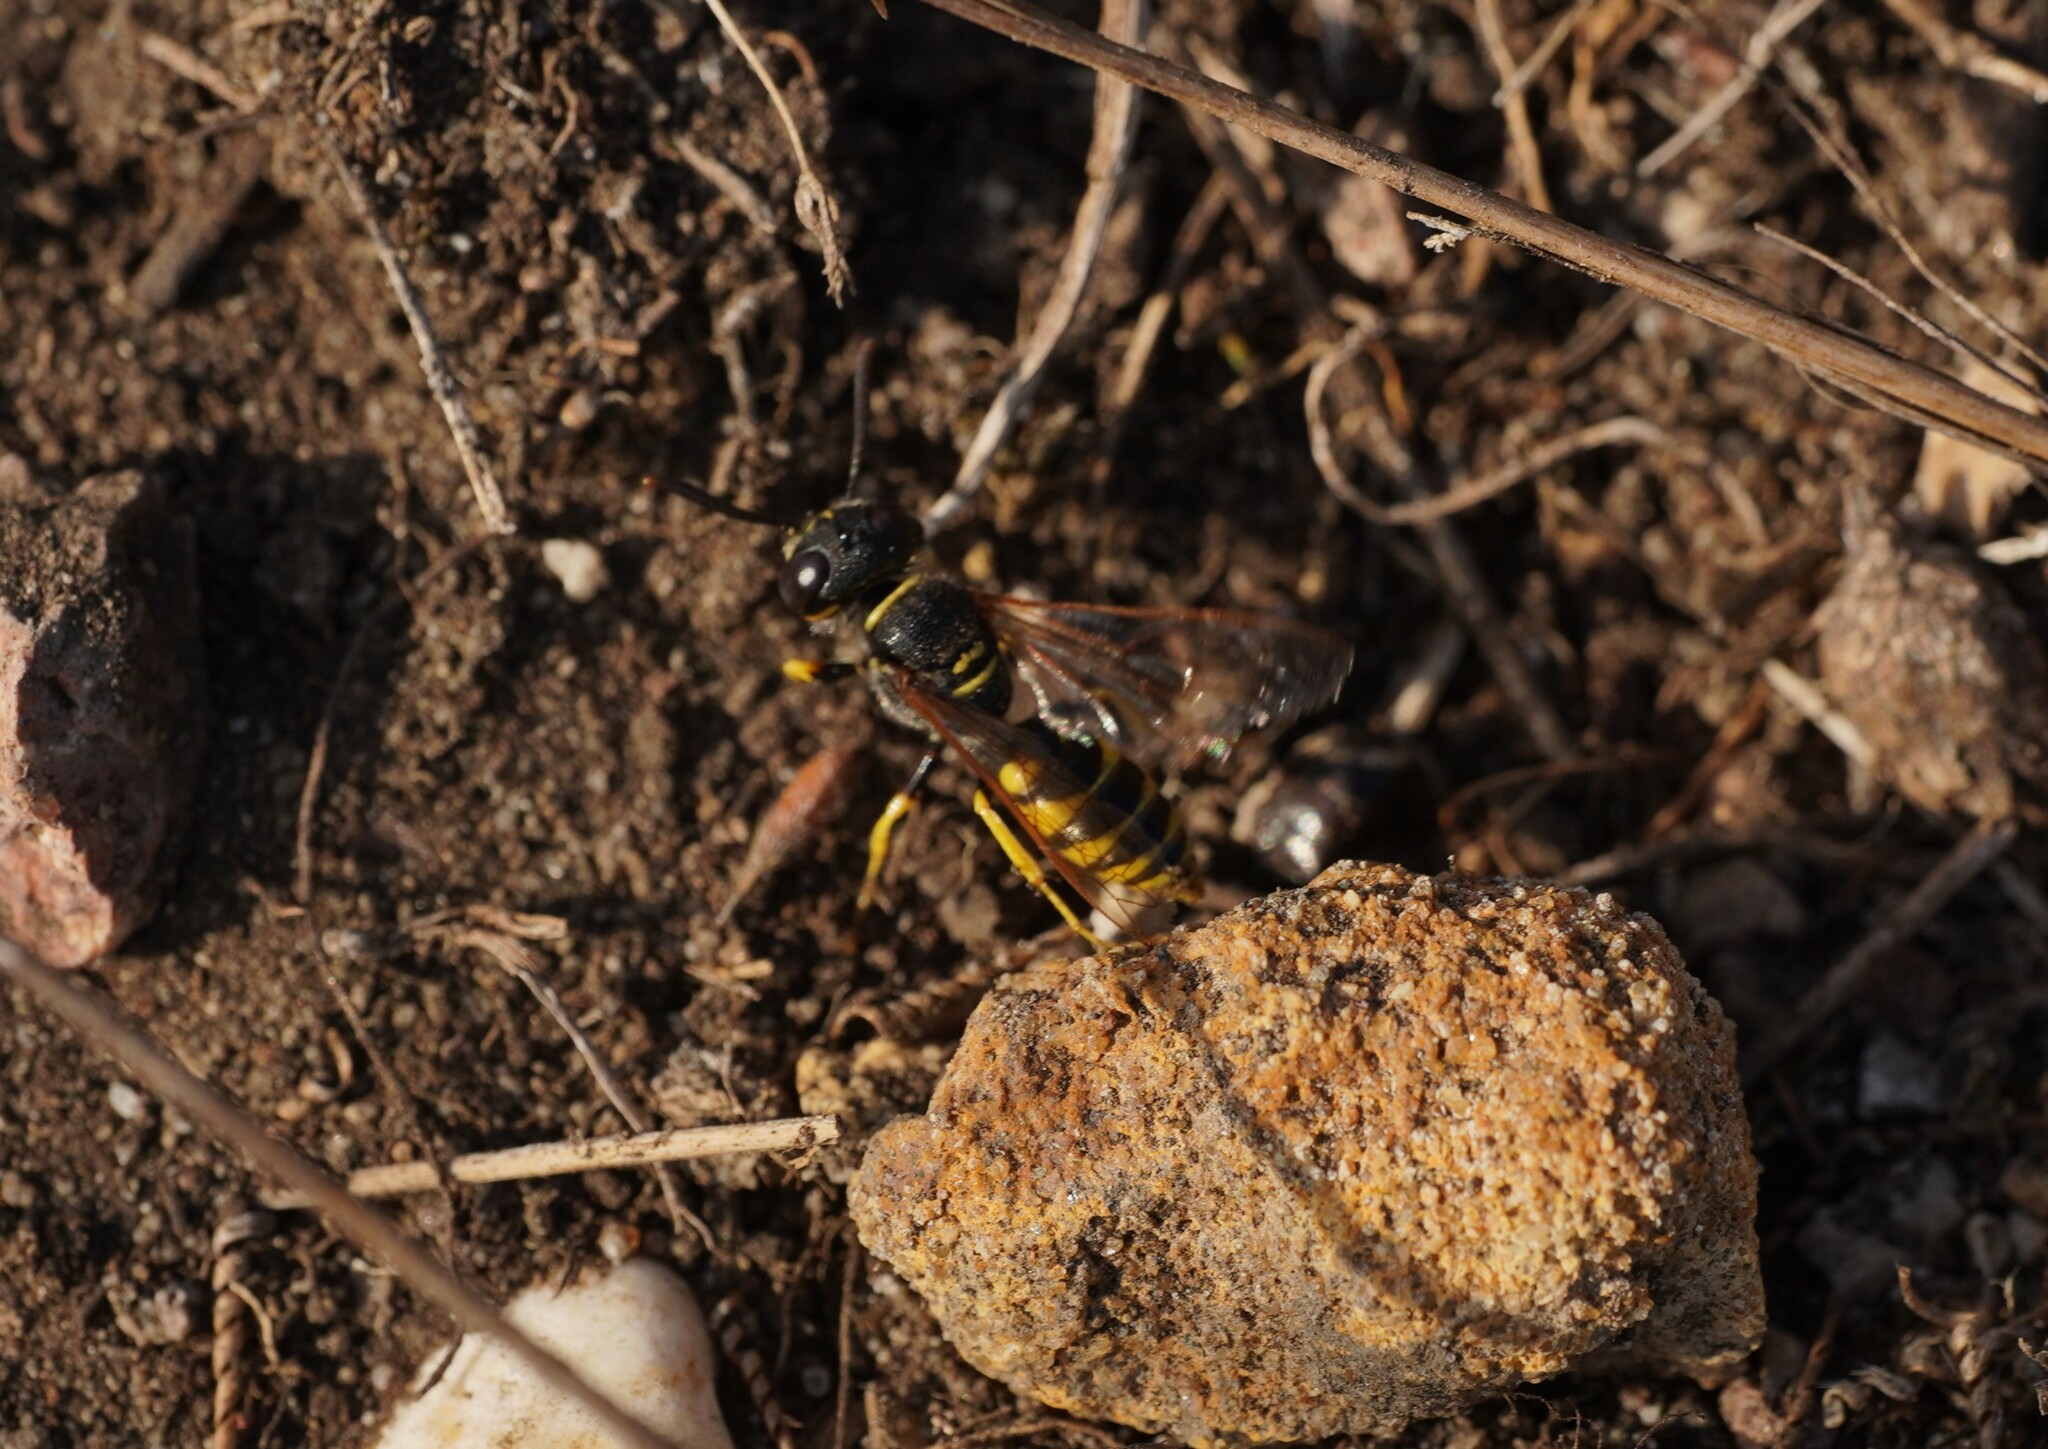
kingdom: Animalia
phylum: Arthropoda
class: Insecta
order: Hymenoptera
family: Crabronidae
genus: Philanthus
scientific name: Philanthus triangulum
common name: Bee wolf
